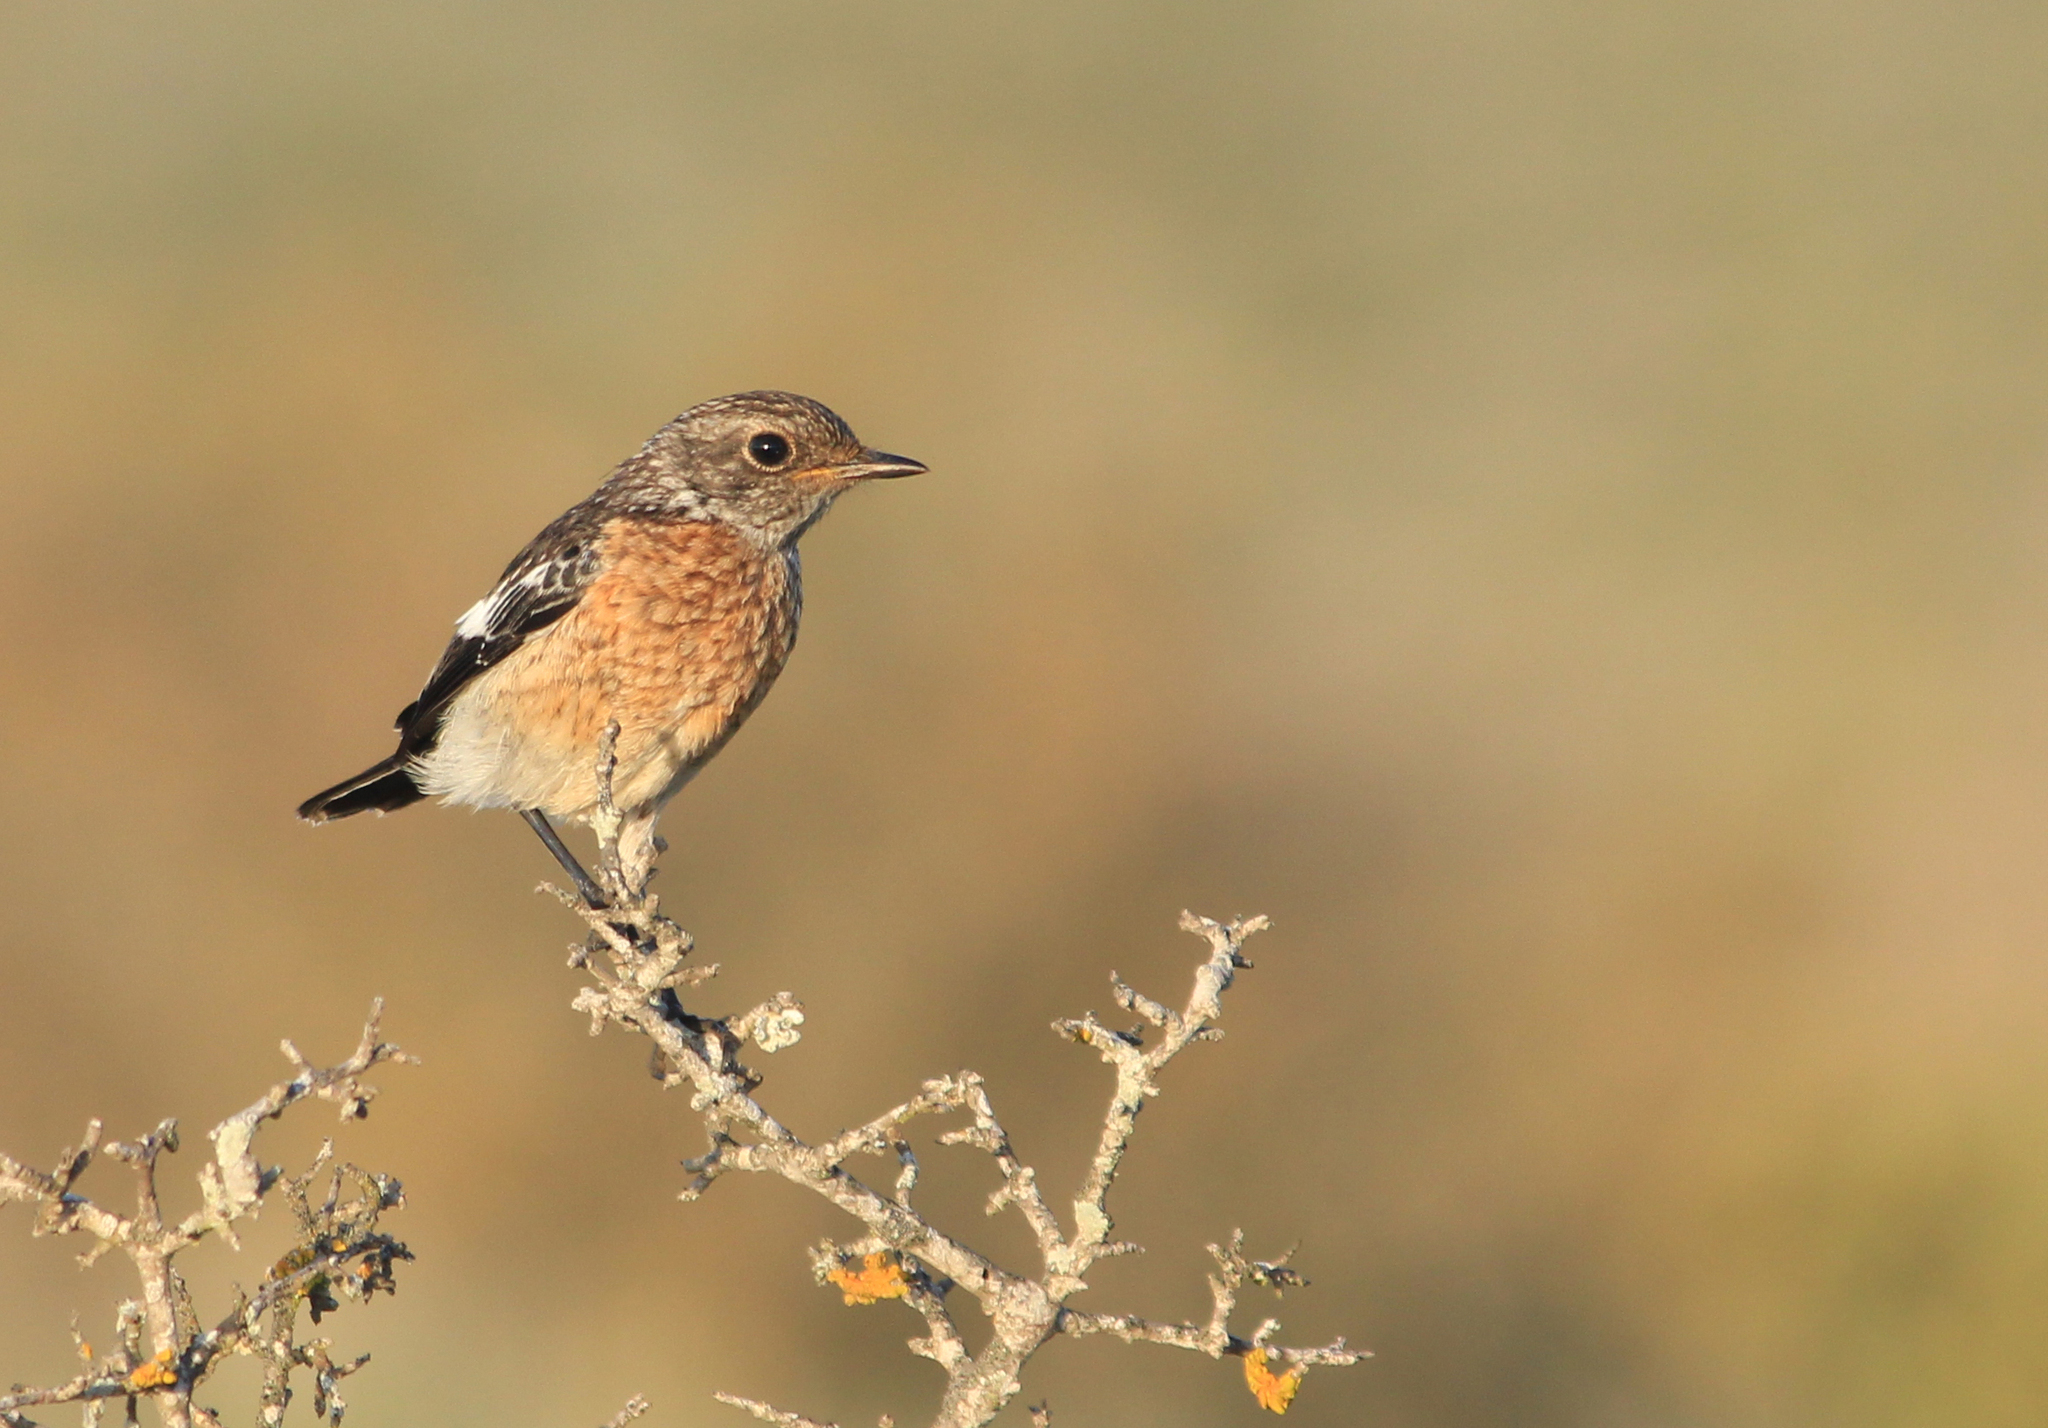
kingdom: Animalia
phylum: Chordata
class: Aves
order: Passeriformes
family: Muscicapidae
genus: Saxicola
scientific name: Saxicola torquatus
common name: African stonechat
